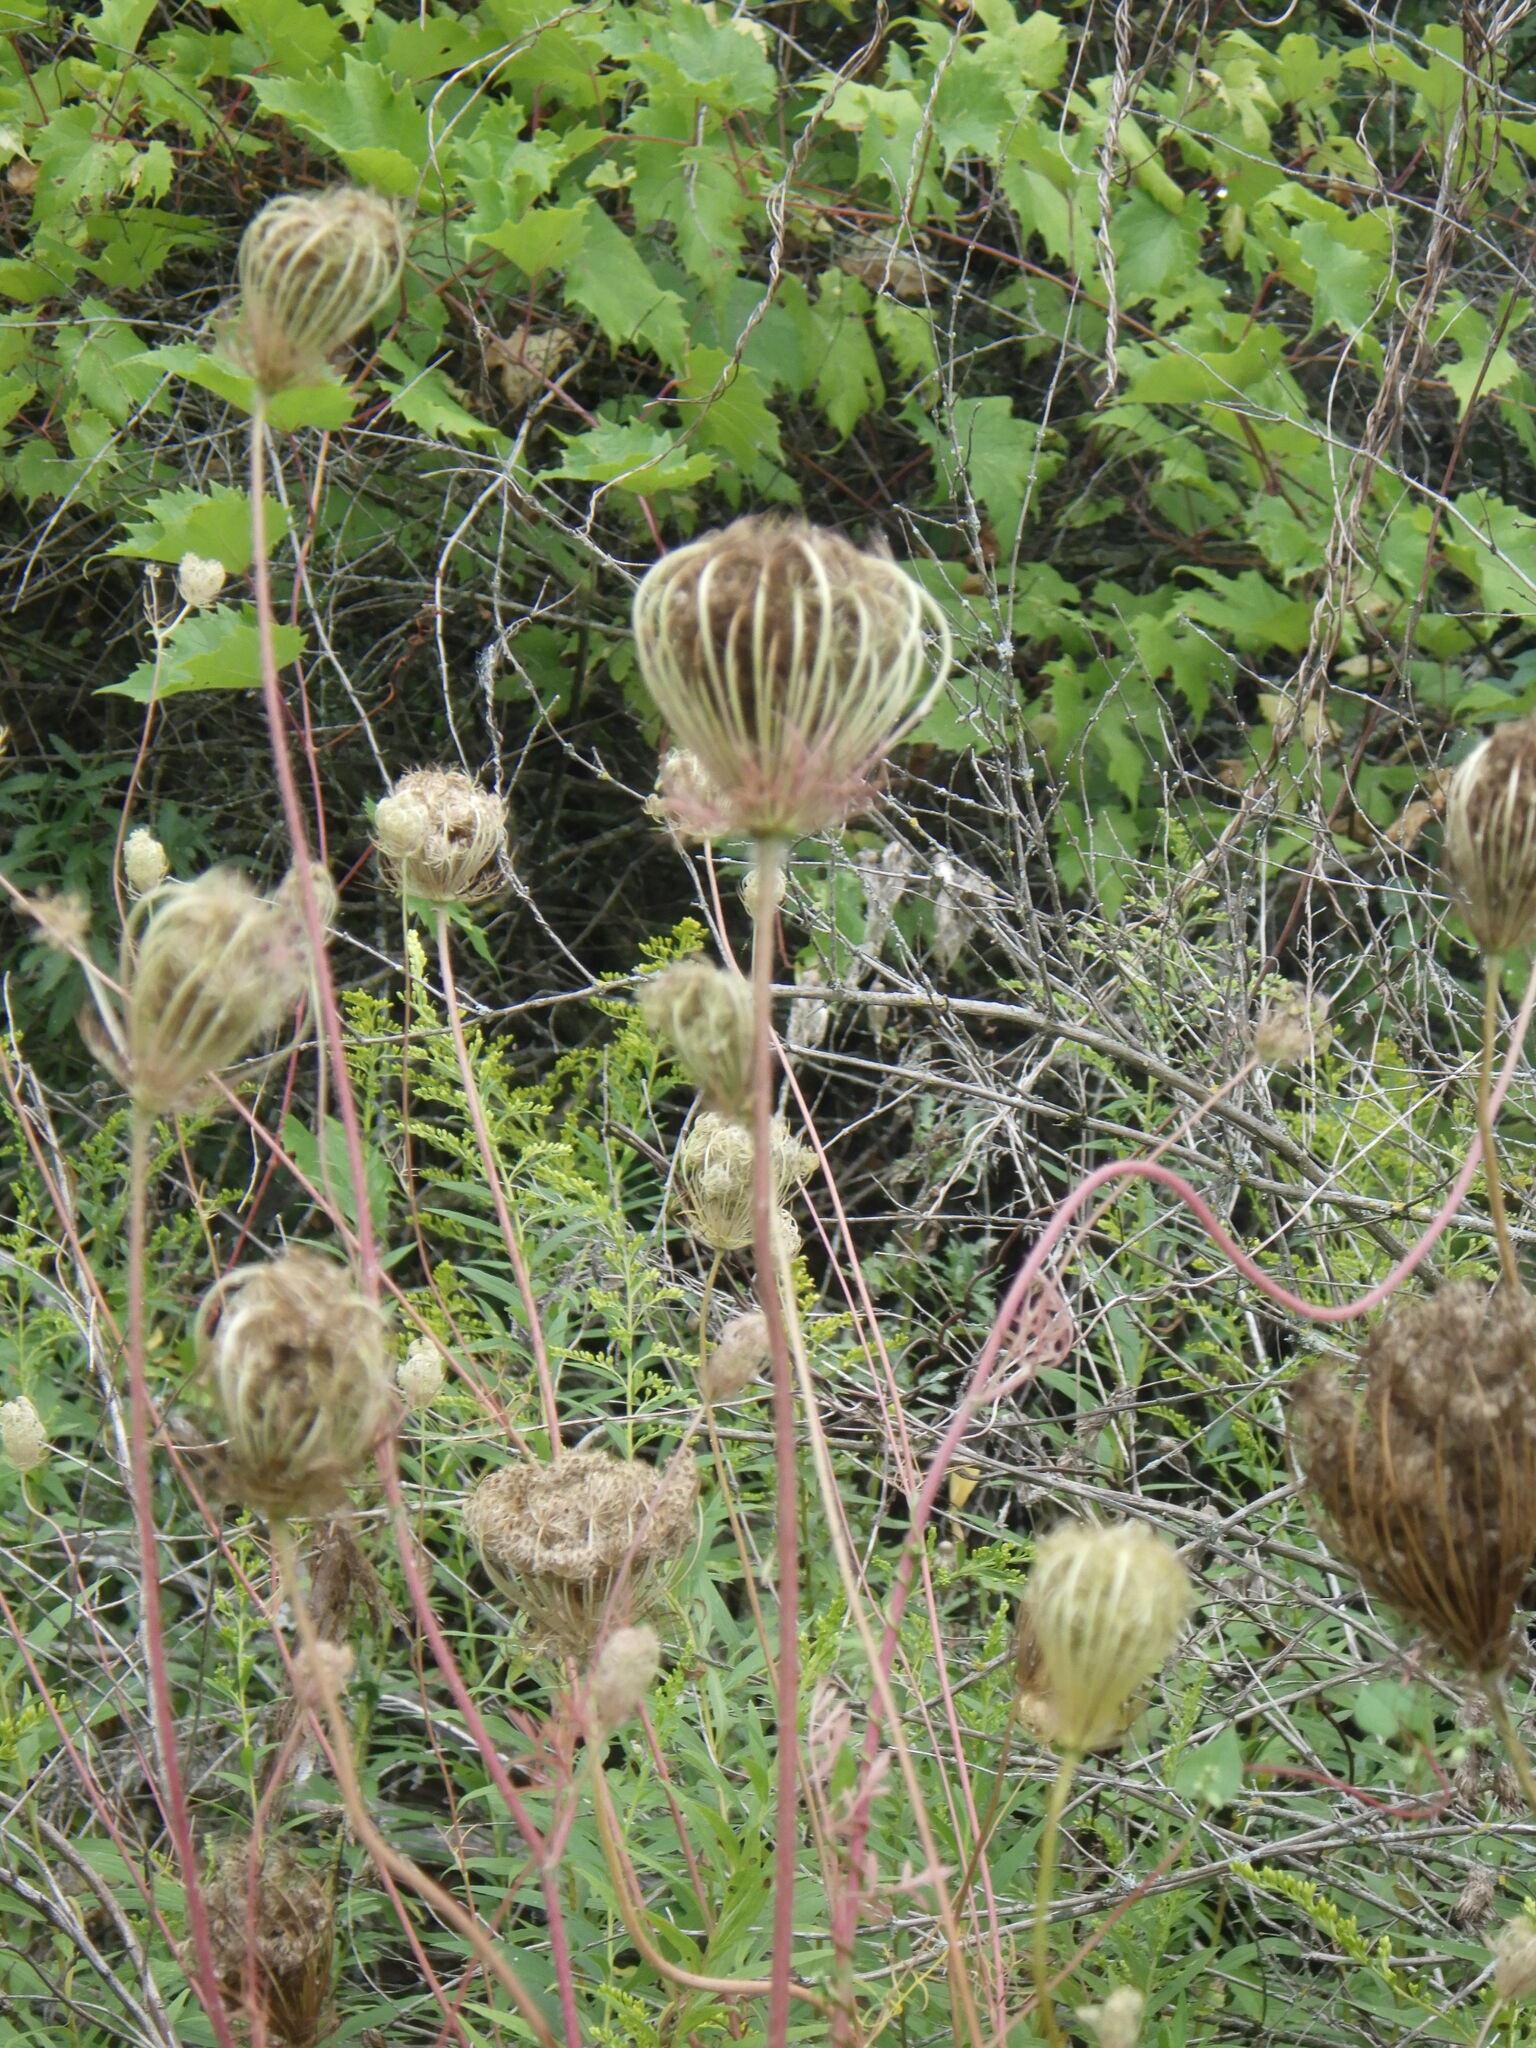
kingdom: Plantae
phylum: Tracheophyta
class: Magnoliopsida
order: Apiales
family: Apiaceae
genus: Daucus
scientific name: Daucus carota
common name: Wild carrot
